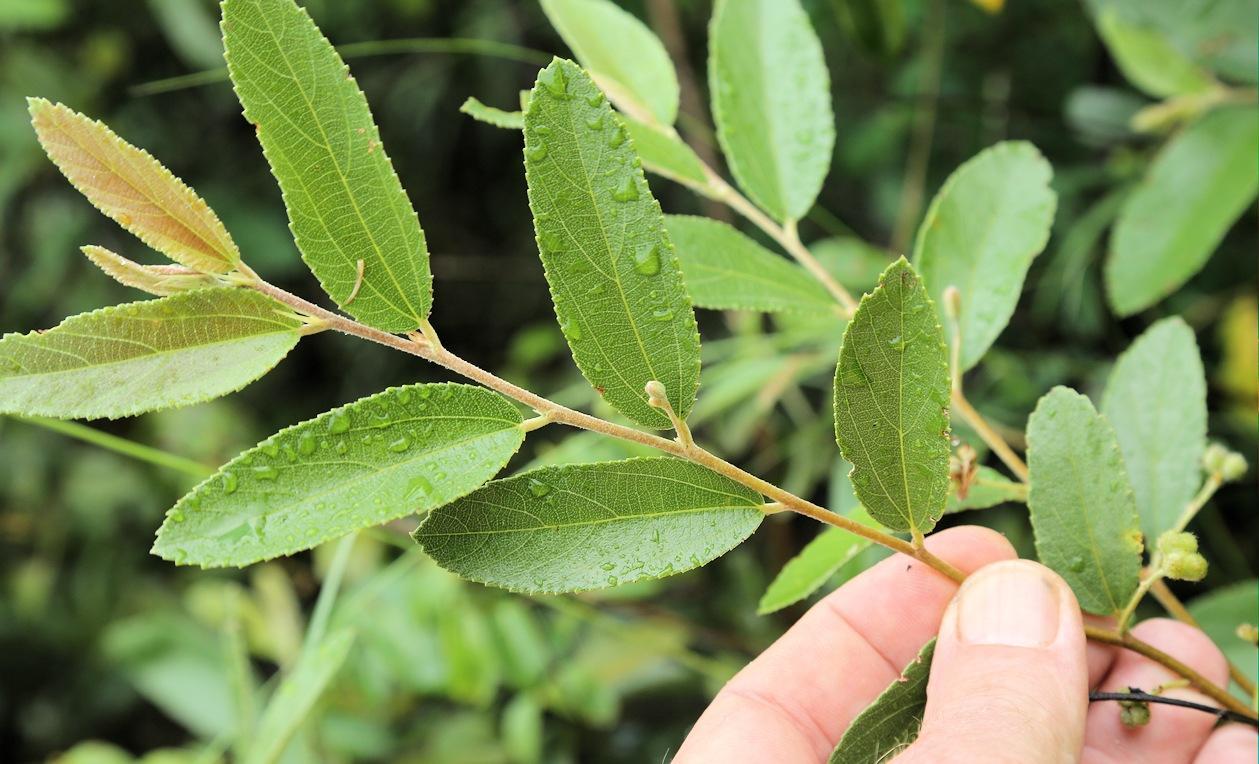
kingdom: Plantae
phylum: Tracheophyta
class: Magnoliopsida
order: Malvales
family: Malvaceae
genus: Grewia
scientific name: Grewia bicolor
